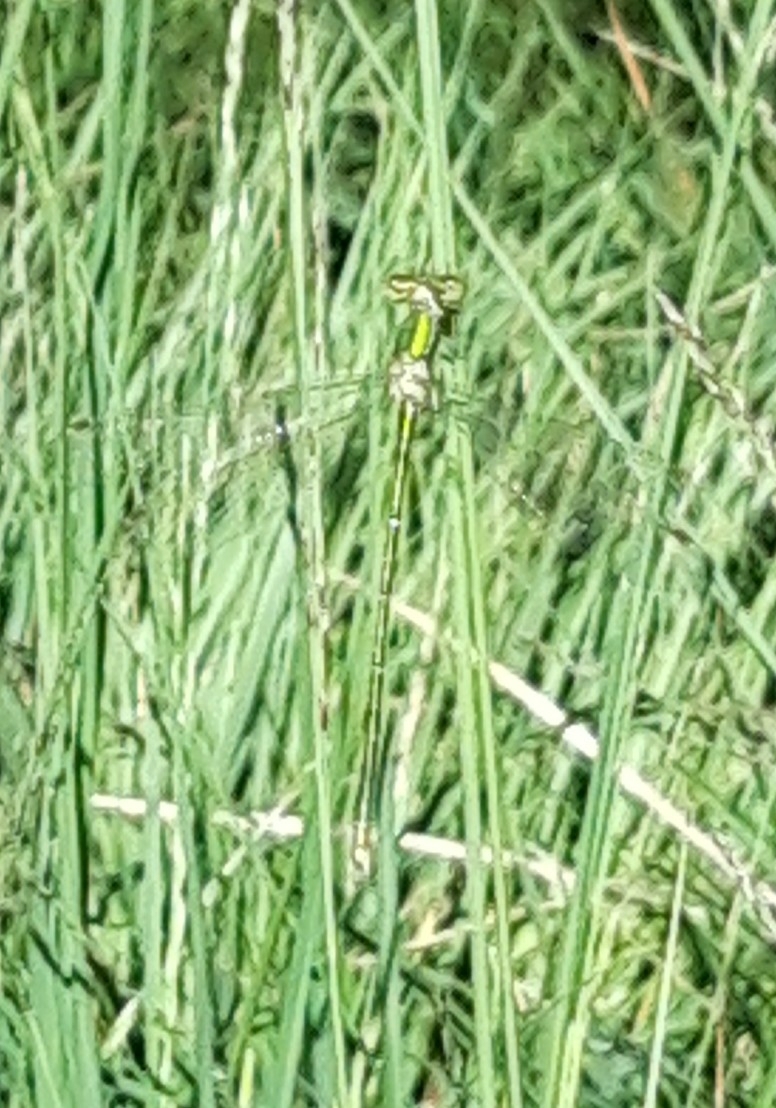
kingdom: Animalia
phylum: Arthropoda
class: Insecta
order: Odonata
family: Lestidae
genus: Lestes
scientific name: Lestes virens
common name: Small emerald spreadwing
